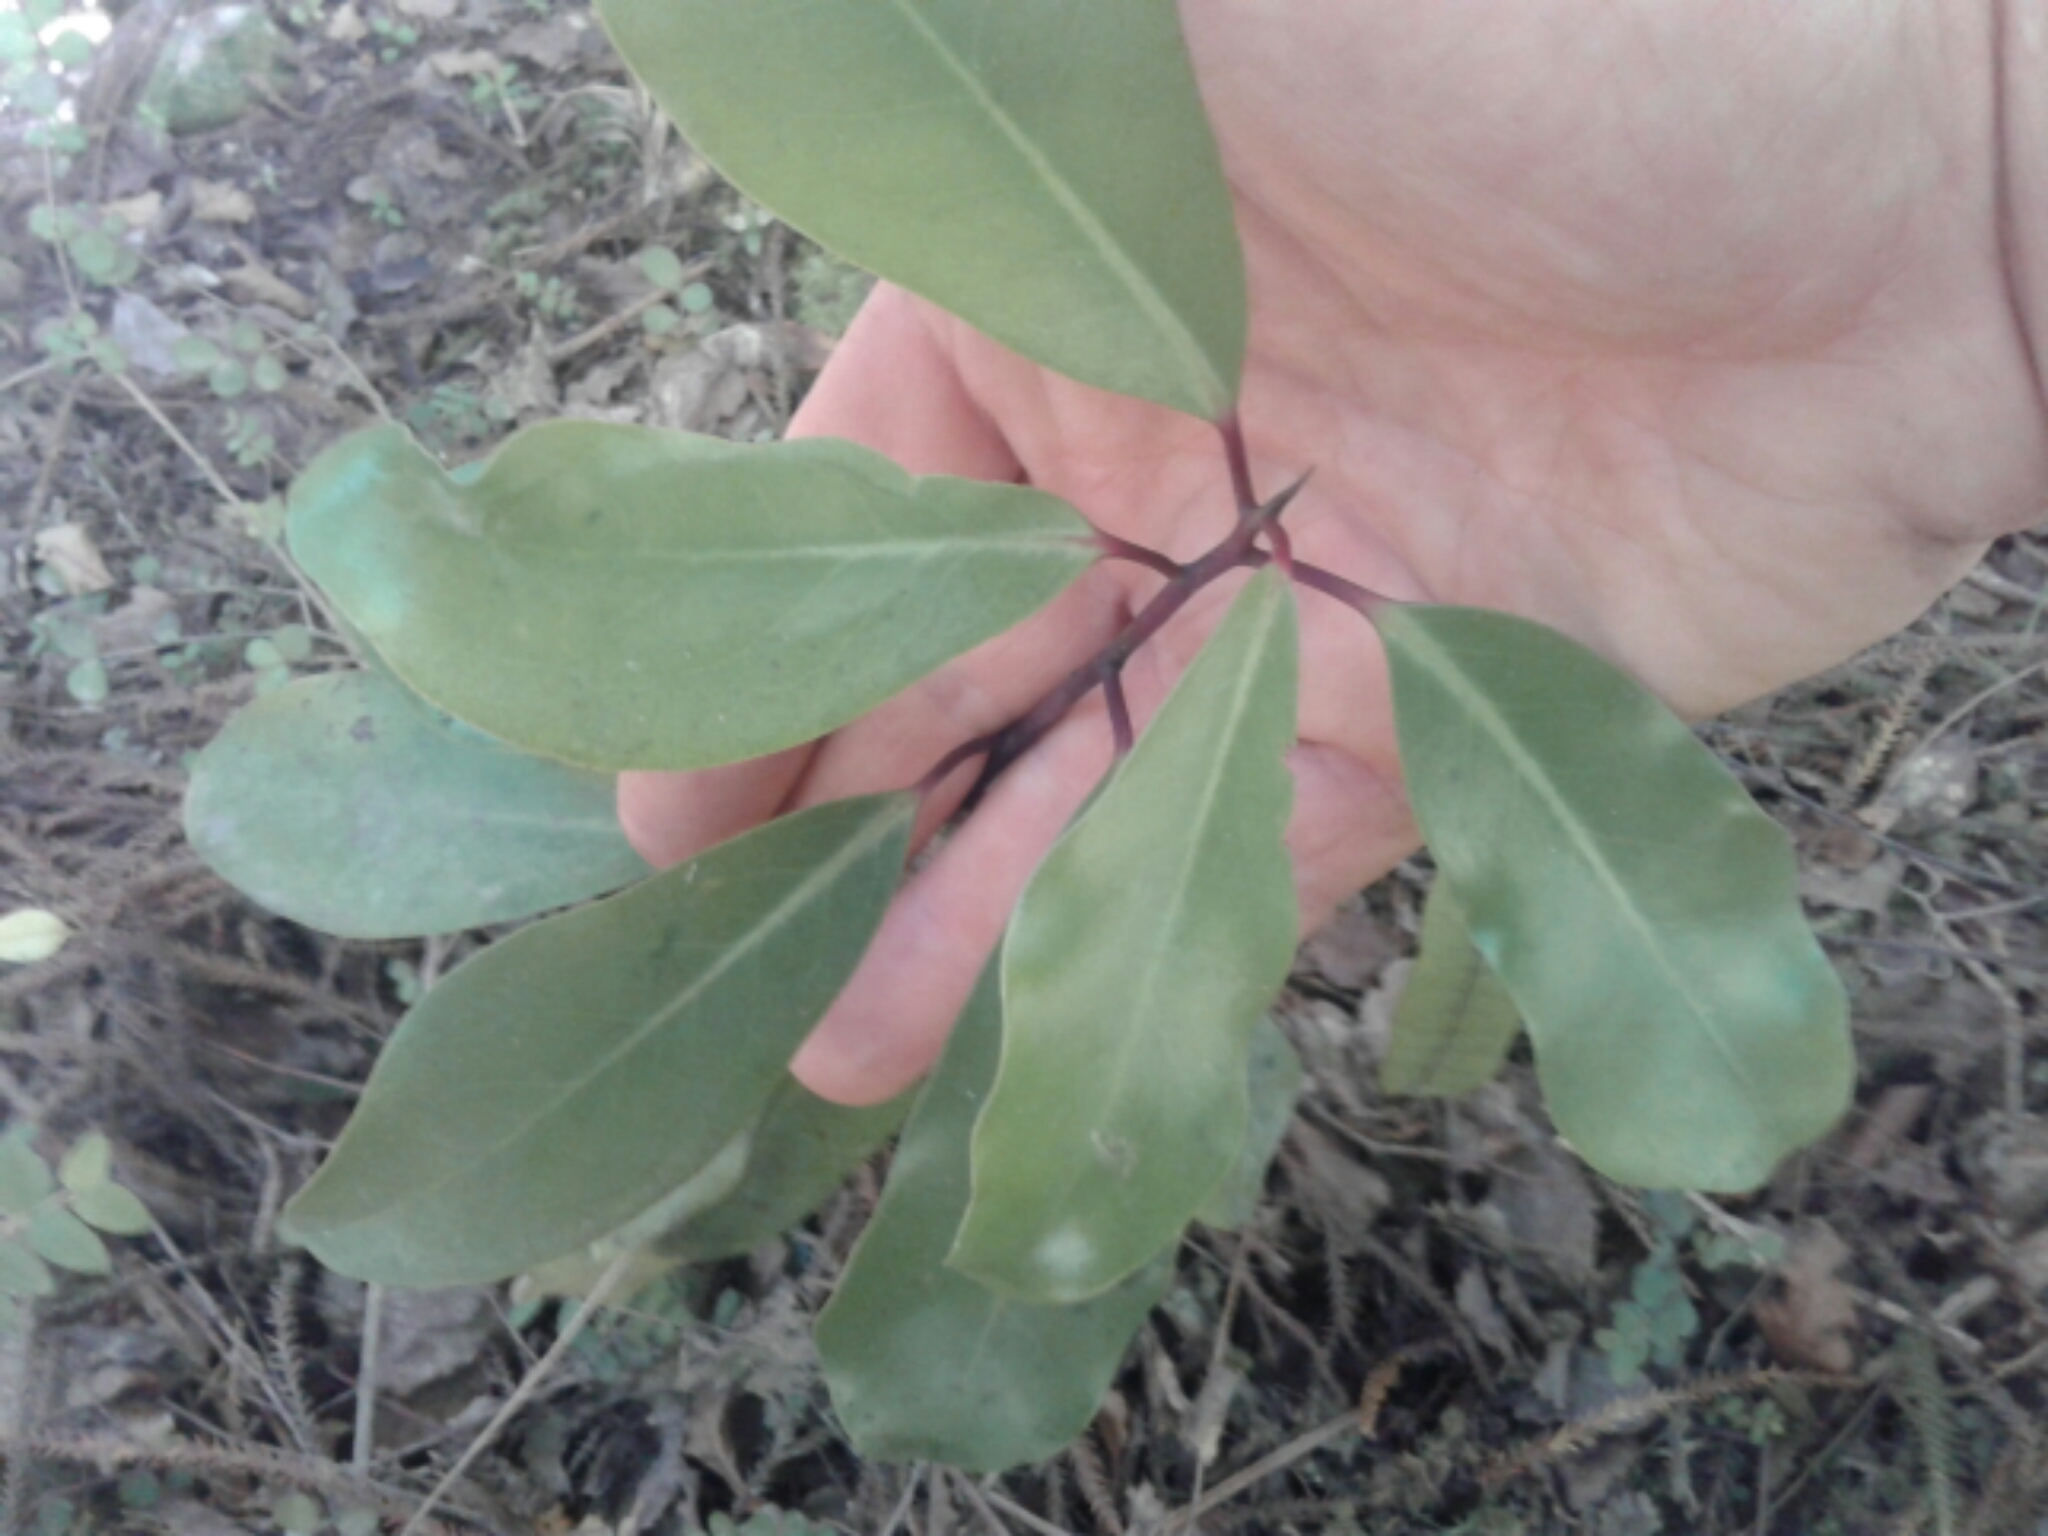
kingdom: Plantae
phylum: Tracheophyta
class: Magnoliopsida
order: Canellales
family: Winteraceae
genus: Pseudowintera
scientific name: Pseudowintera axillaris
